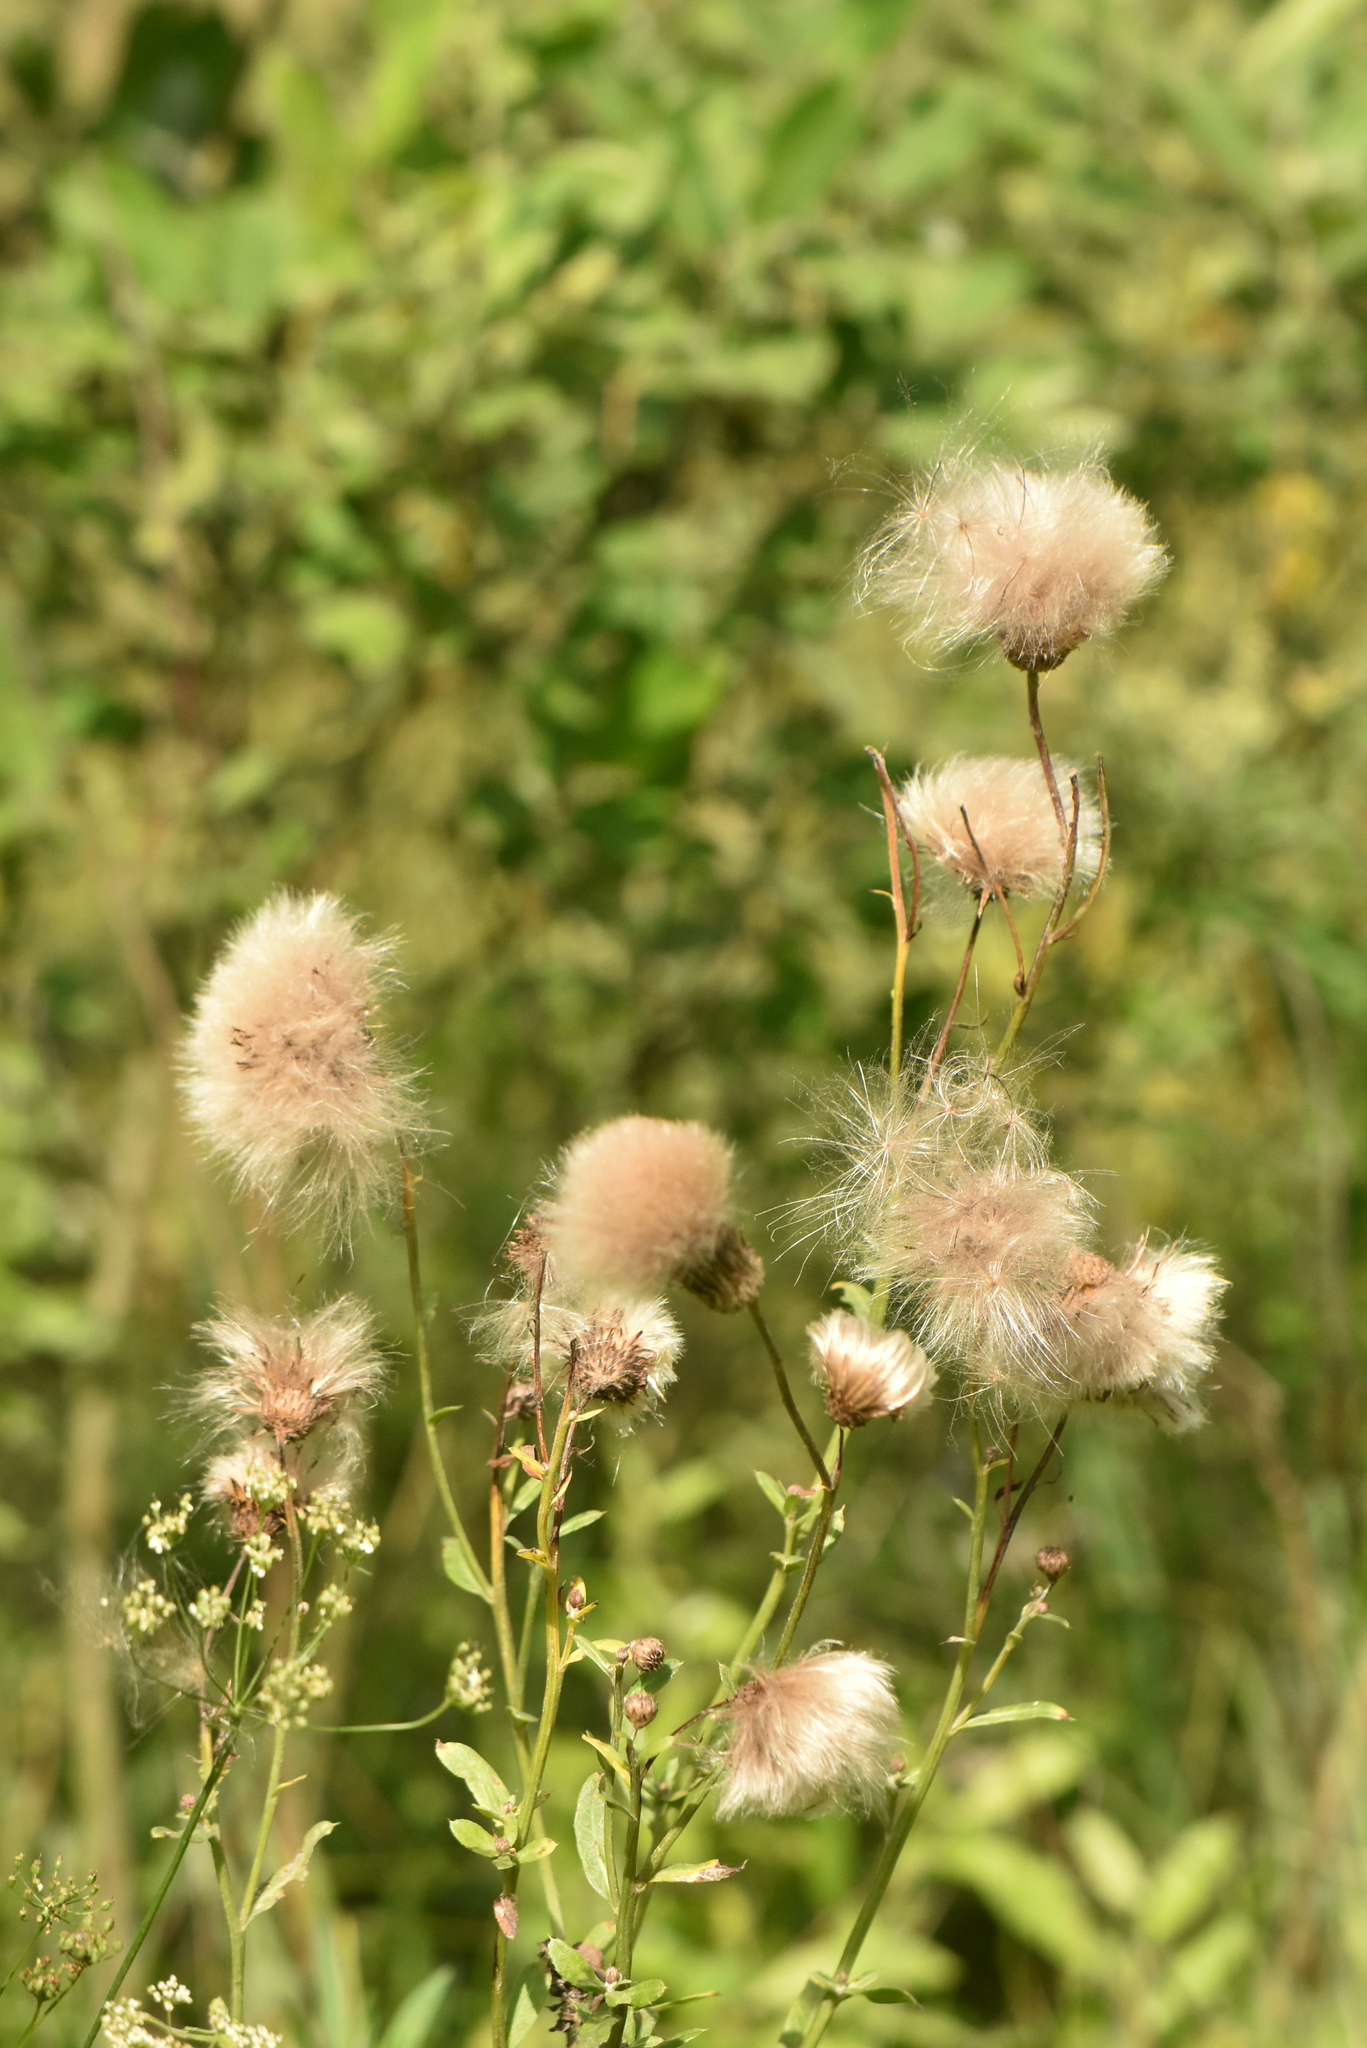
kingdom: Plantae
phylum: Tracheophyta
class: Magnoliopsida
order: Asterales
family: Asteraceae
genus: Cirsium
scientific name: Cirsium arvense
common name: Creeping thistle
